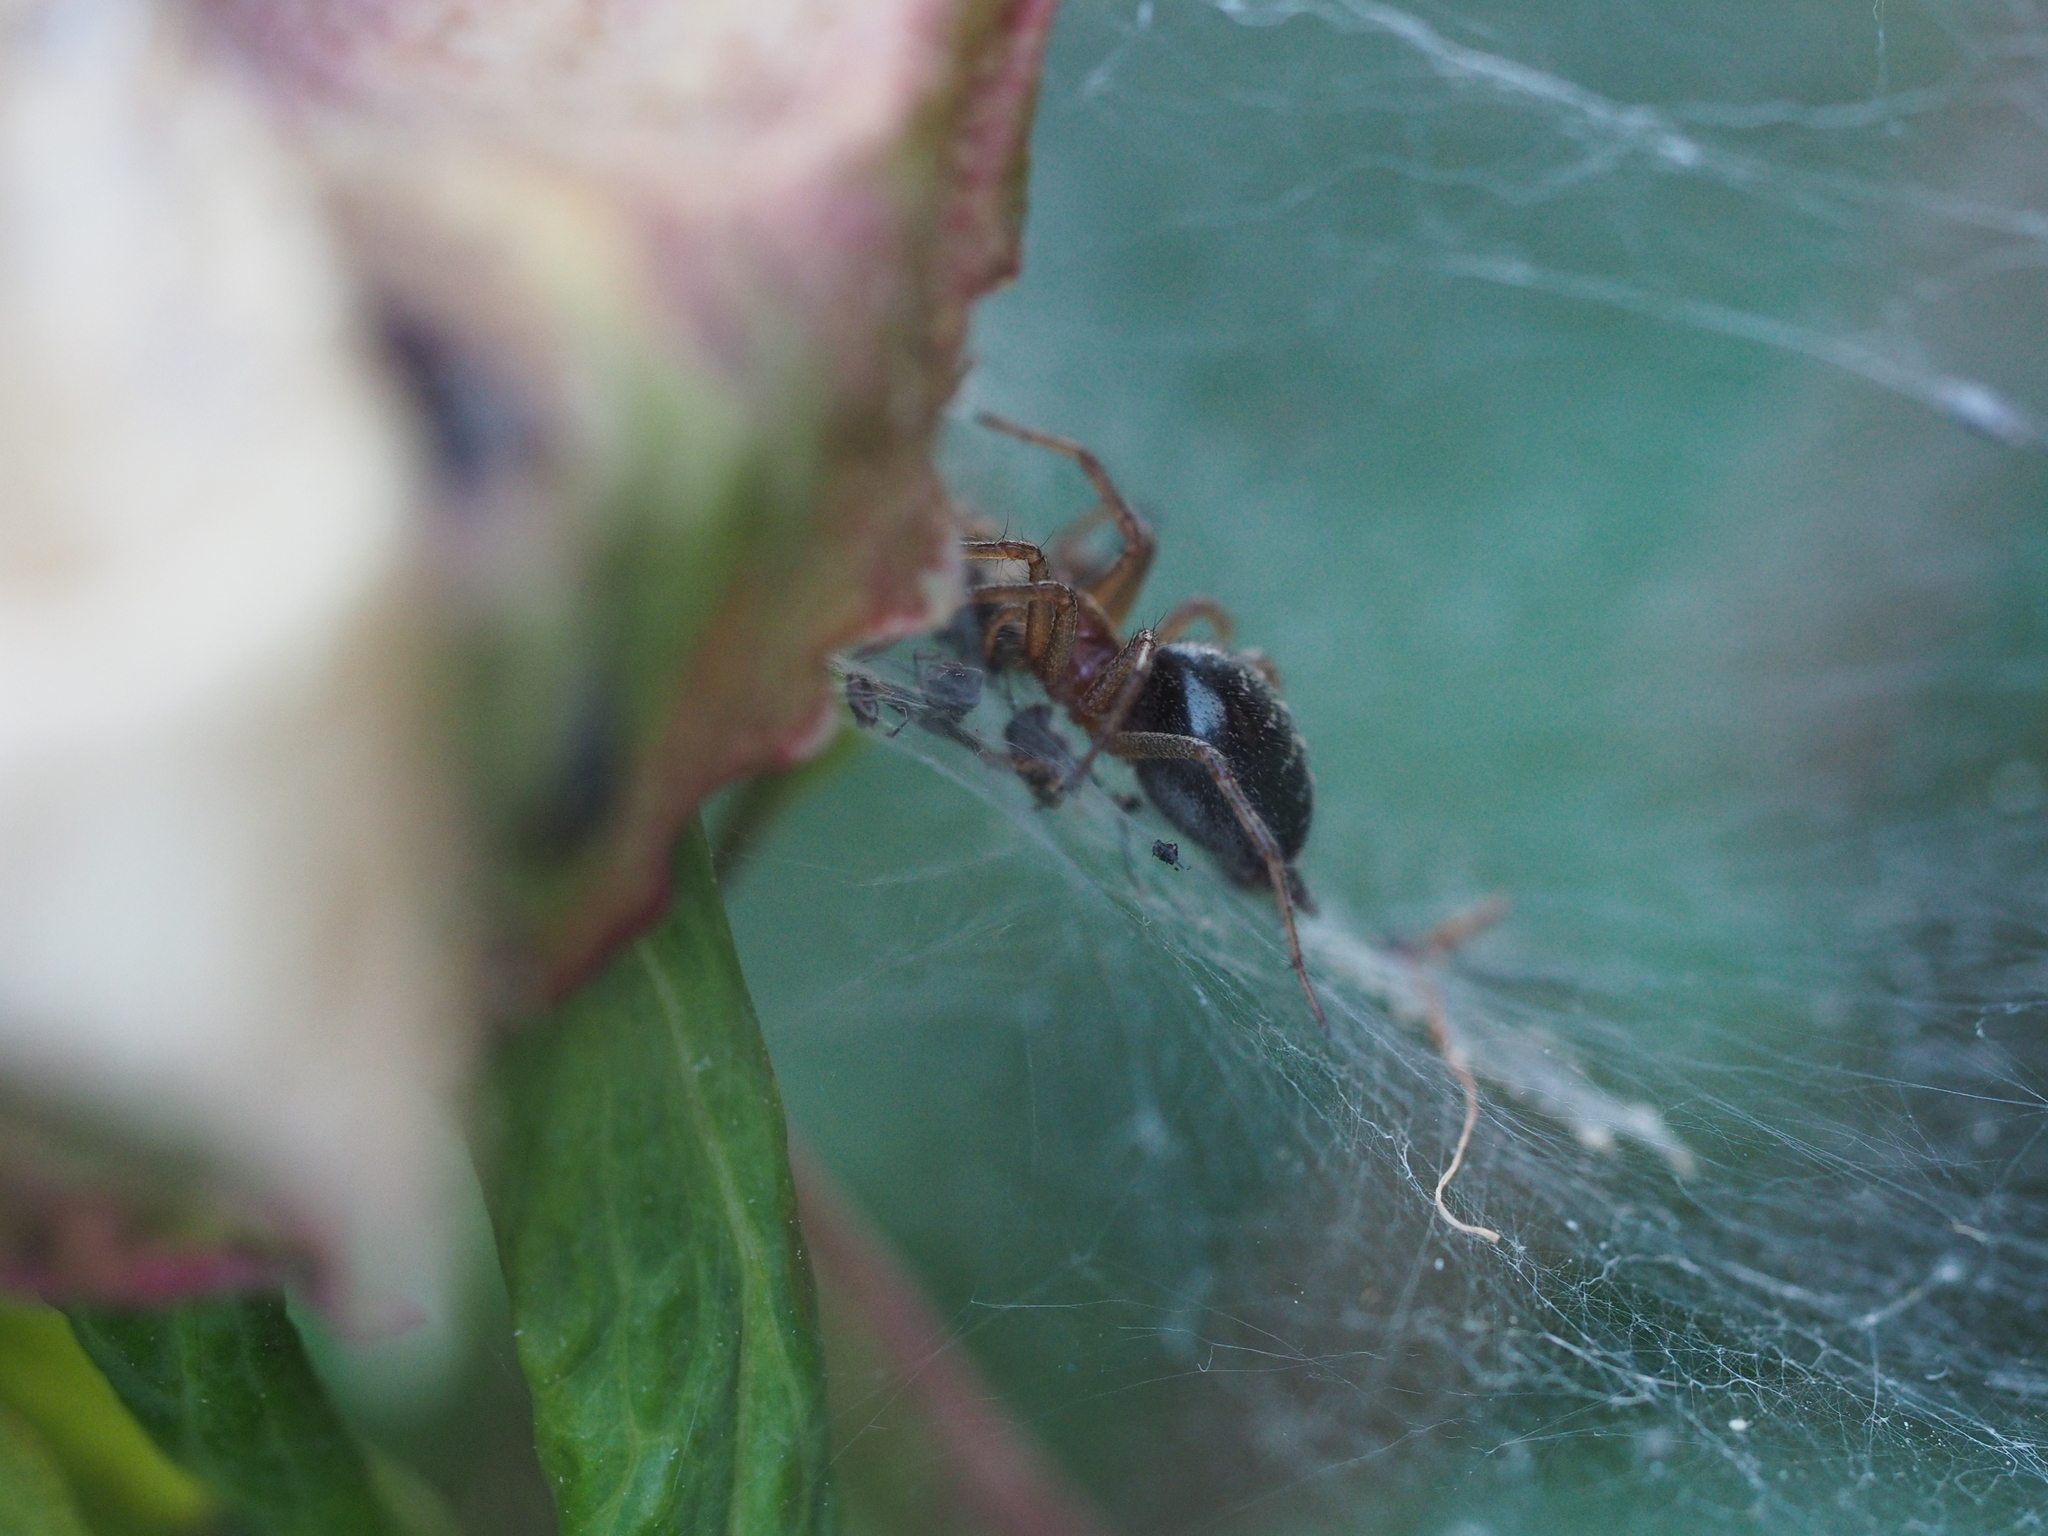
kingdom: Animalia
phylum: Arthropoda
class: Arachnida
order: Araneae
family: Agelenidae
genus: Agelena
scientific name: Agelena labyrinthica
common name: Labyrinth spider
